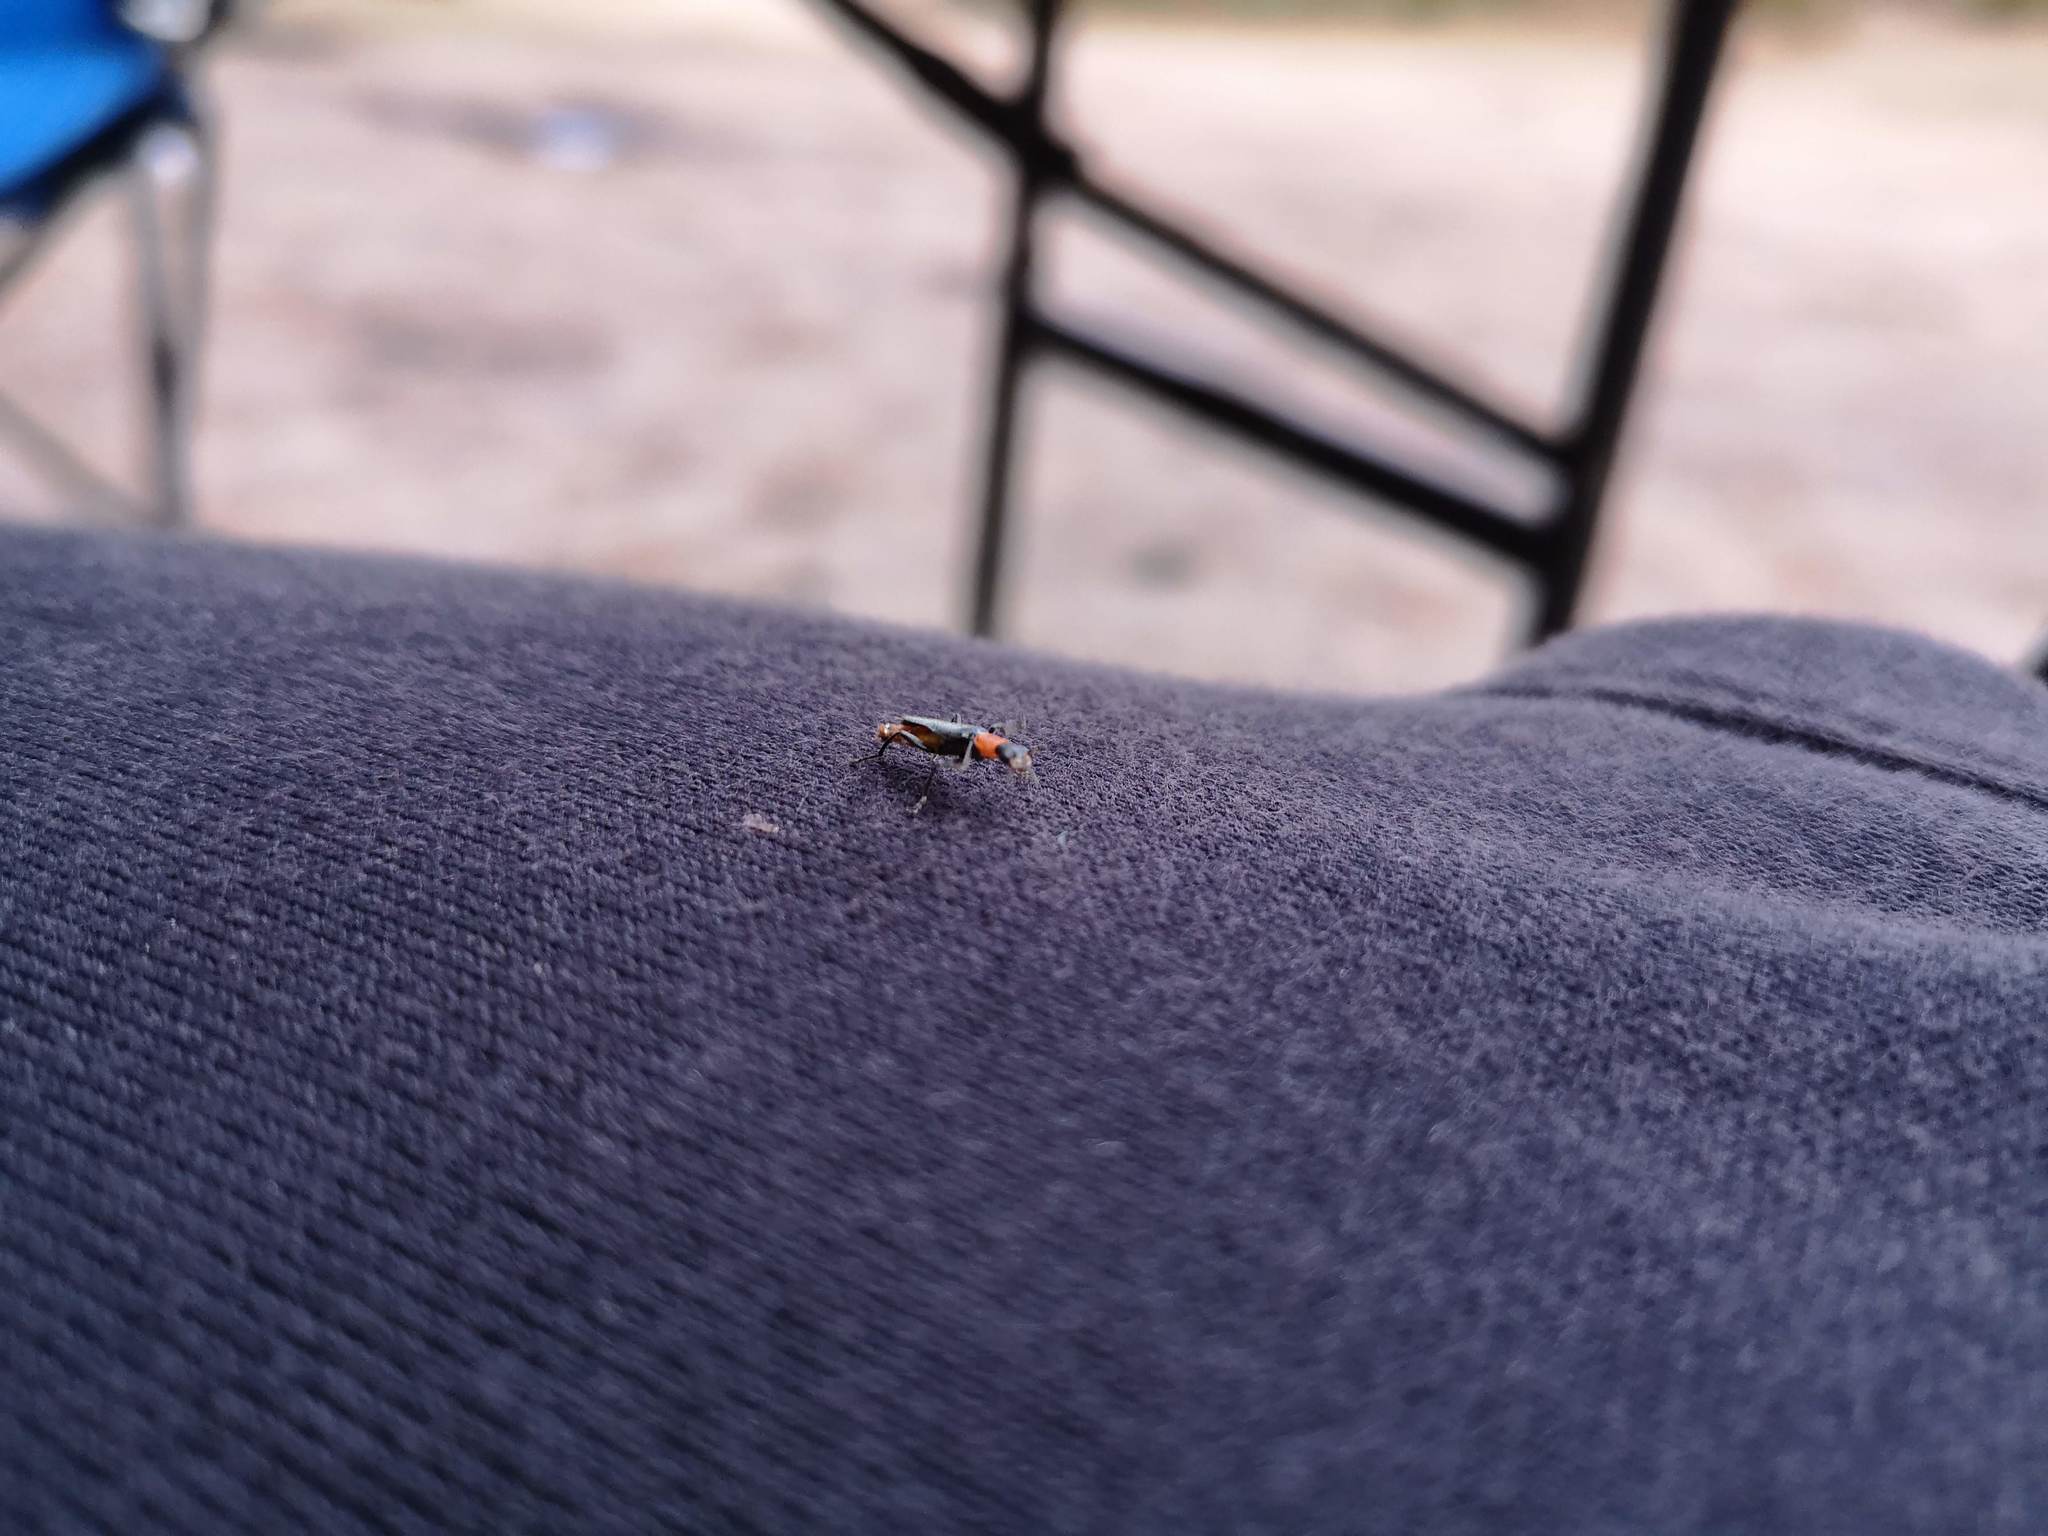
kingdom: Animalia
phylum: Arthropoda
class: Insecta
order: Coleoptera
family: Cantharidae
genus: Chauliognathus
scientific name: Chauliognathus
